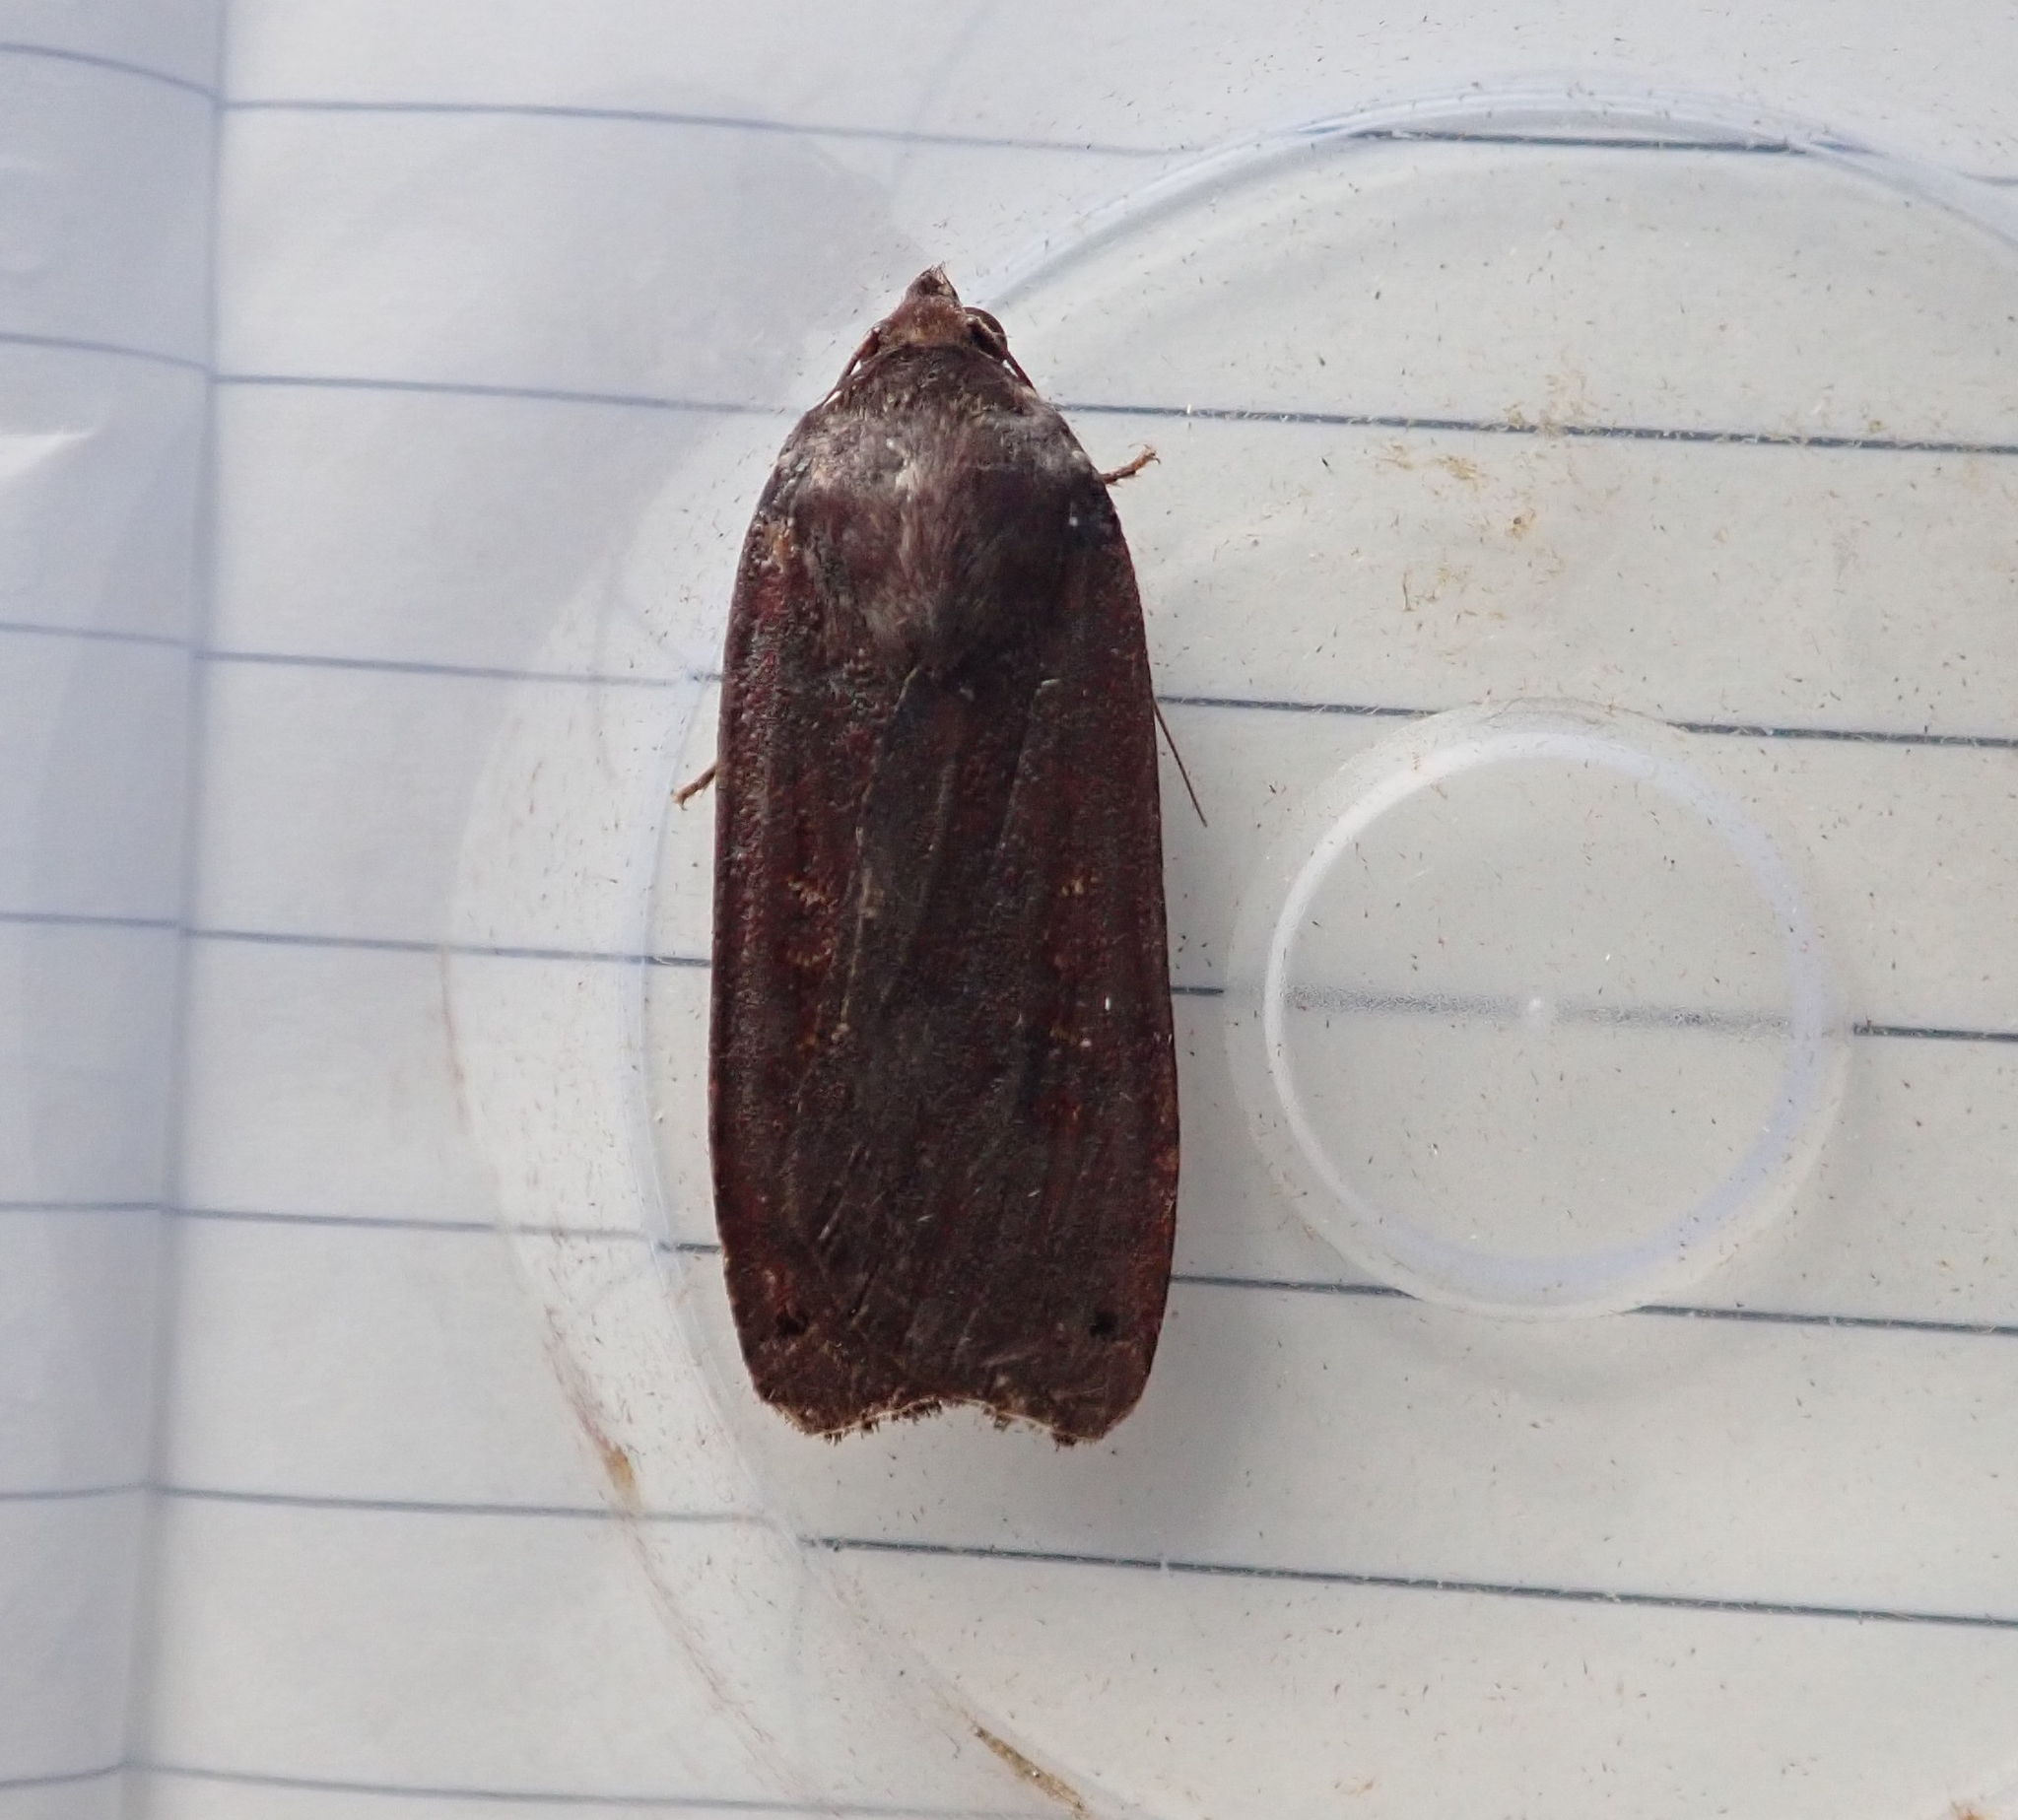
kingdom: Animalia
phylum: Arthropoda
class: Insecta
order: Lepidoptera
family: Noctuidae
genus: Noctua
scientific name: Noctua pronuba
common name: Large yellow underwing
